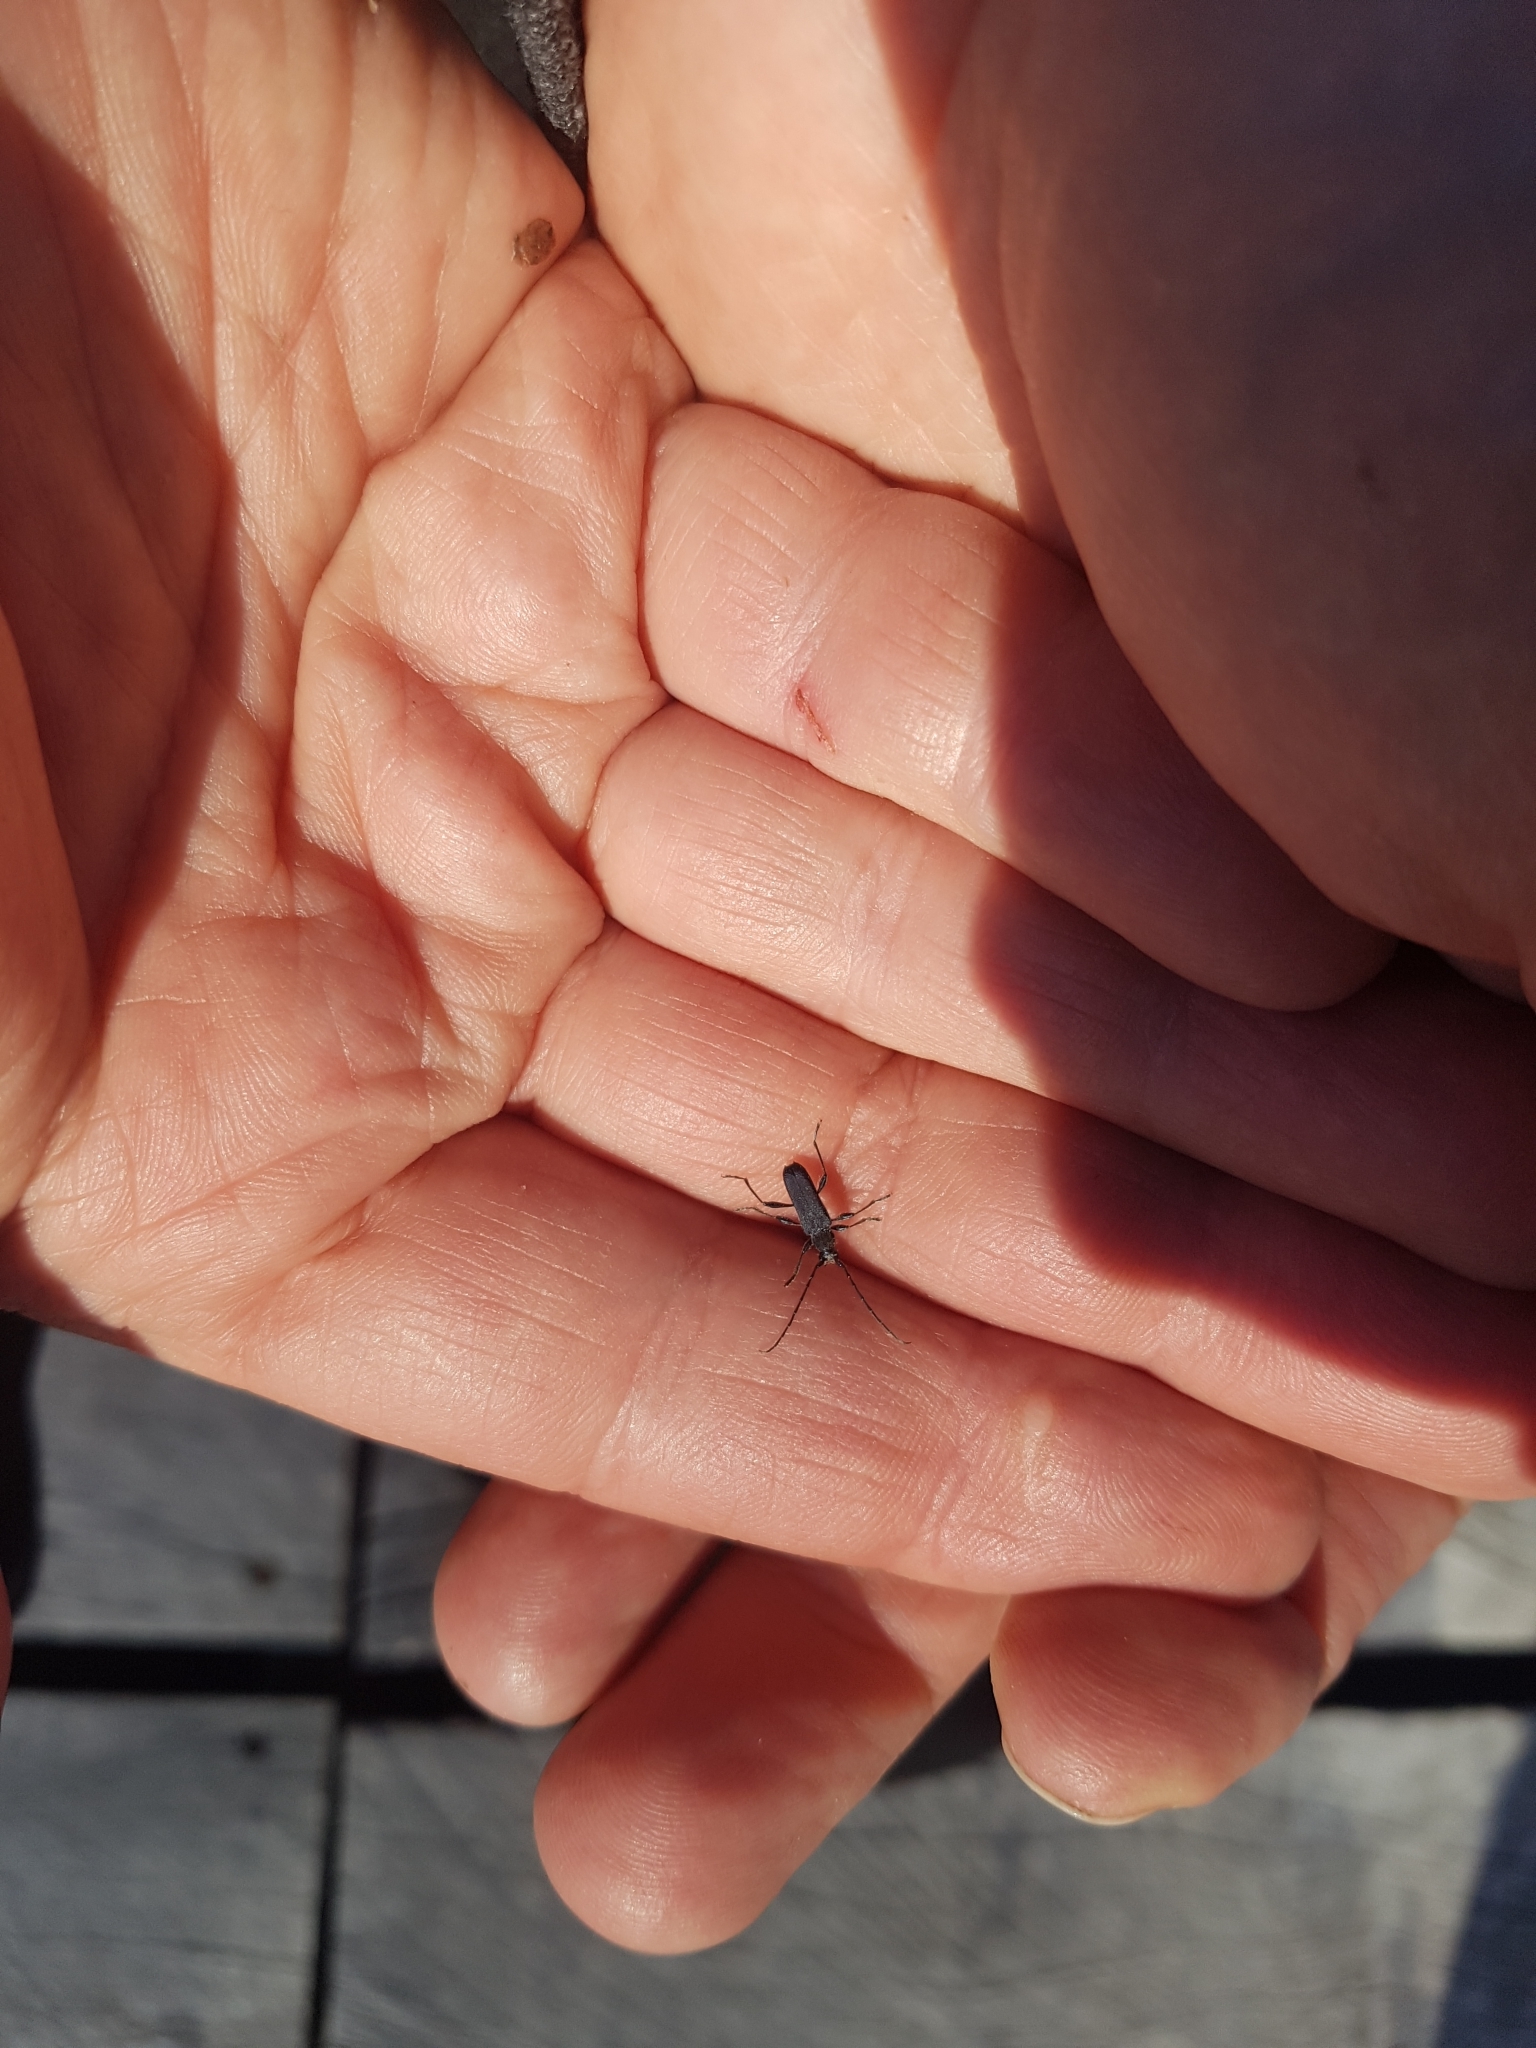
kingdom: Animalia
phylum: Arthropoda
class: Insecta
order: Coleoptera
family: Cerambycidae
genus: Eryphus
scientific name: Eryphus laetus
